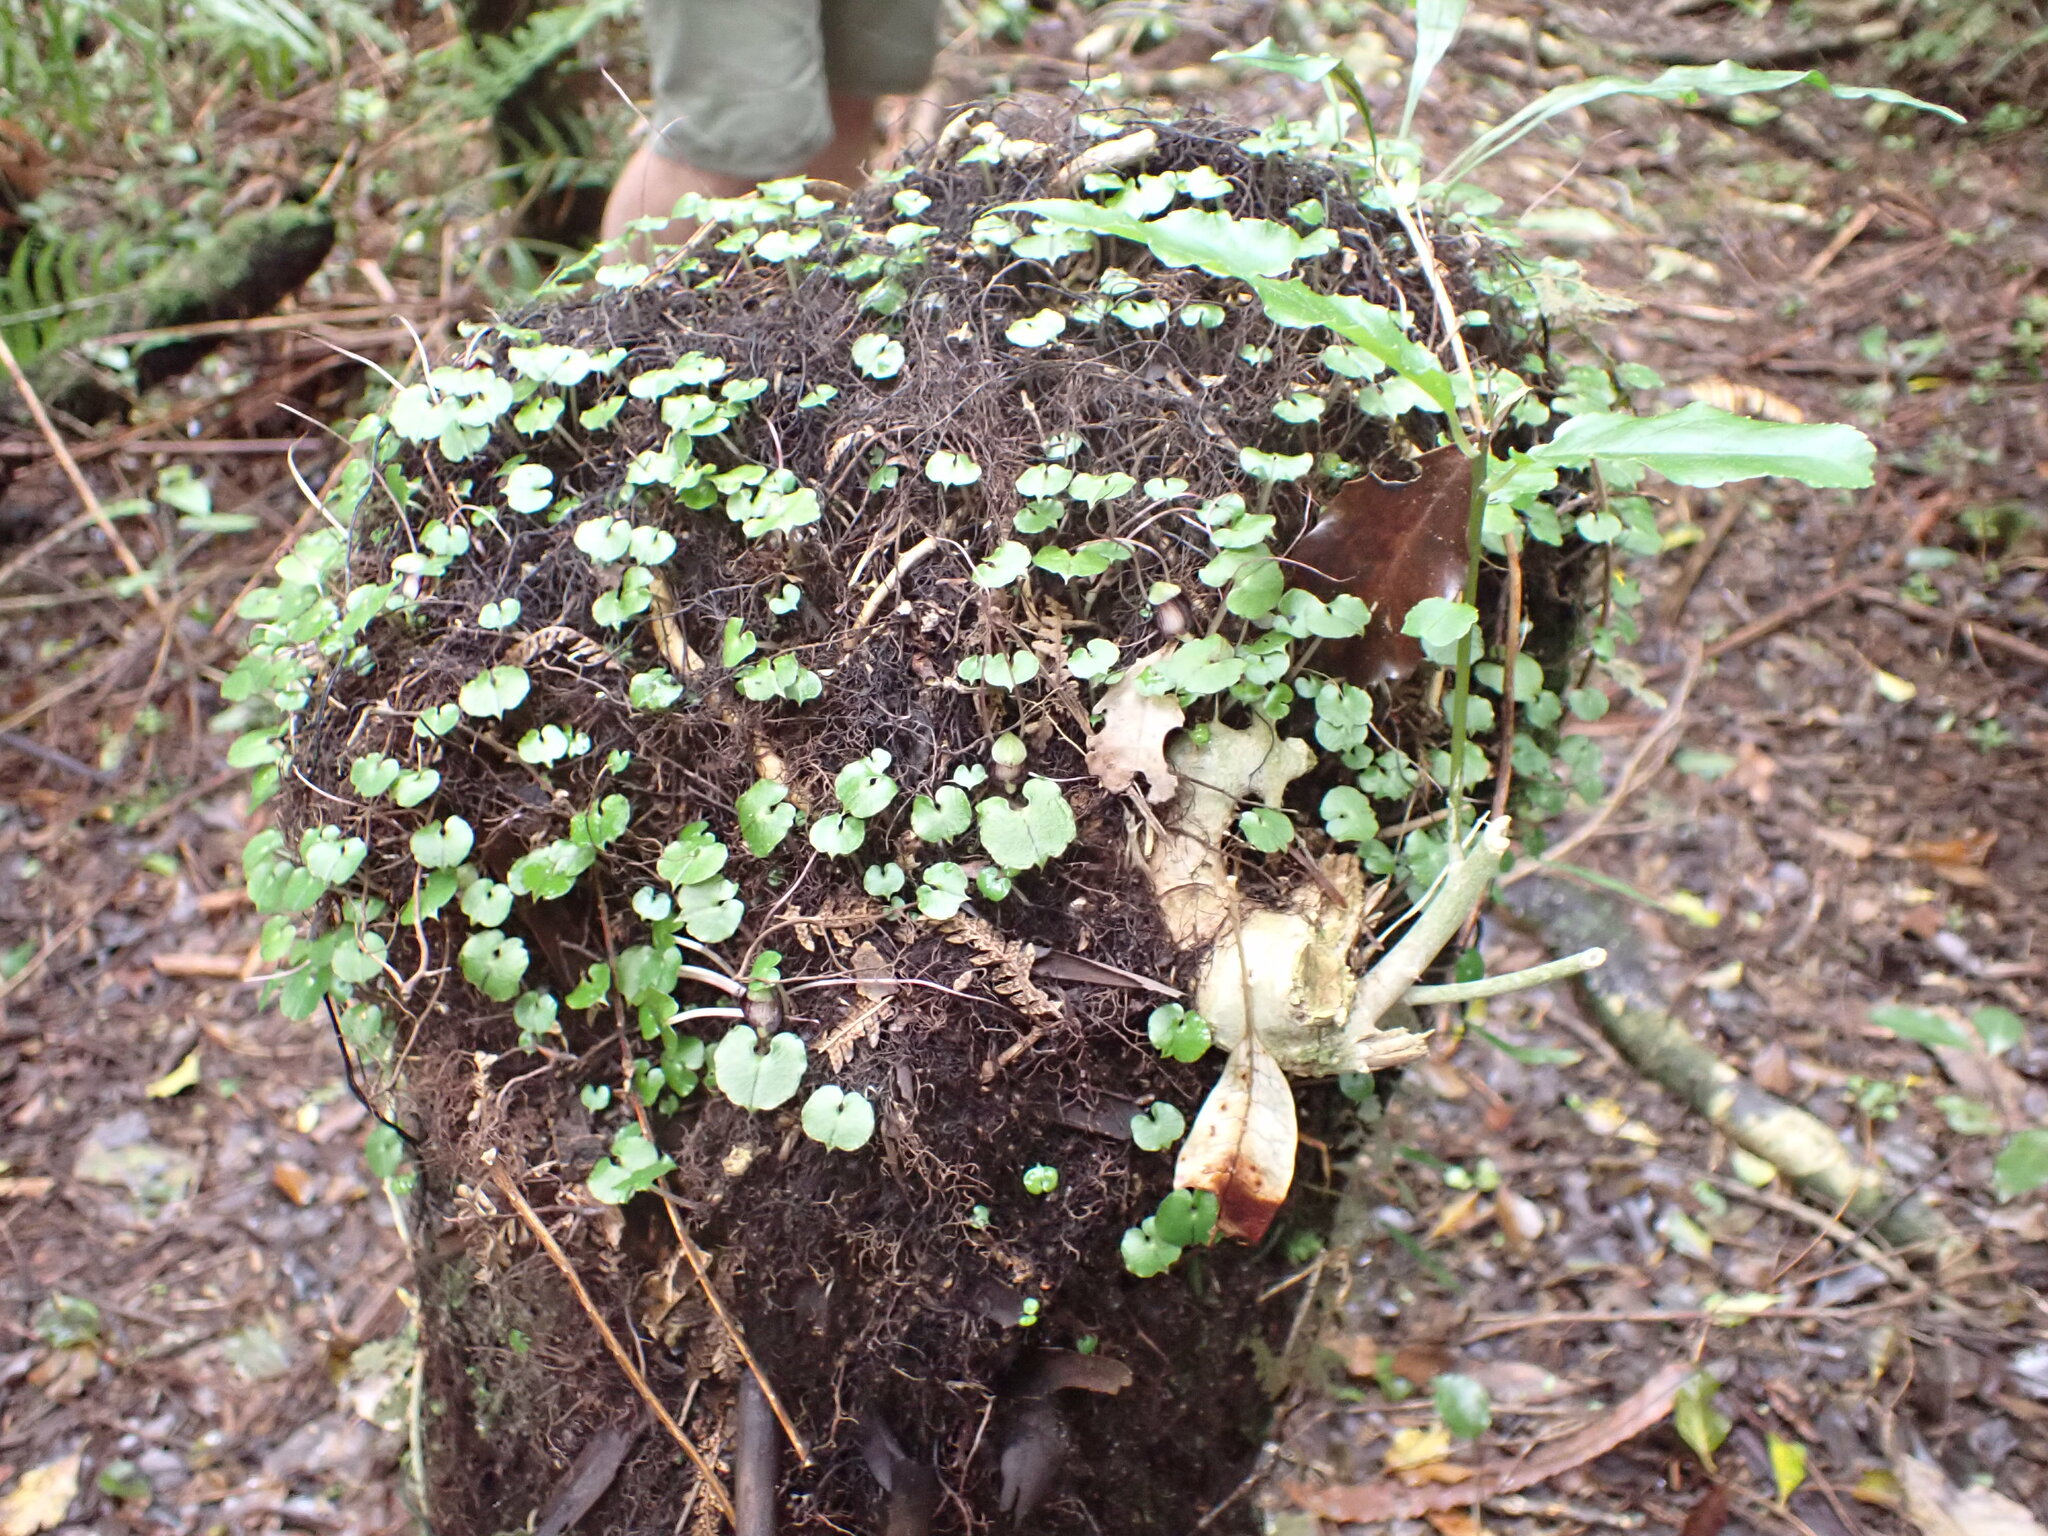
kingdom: Plantae
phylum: Tracheophyta
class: Liliopsida
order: Asparagales
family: Orchidaceae
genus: Corybas
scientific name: Corybas sanctigeorgianus
